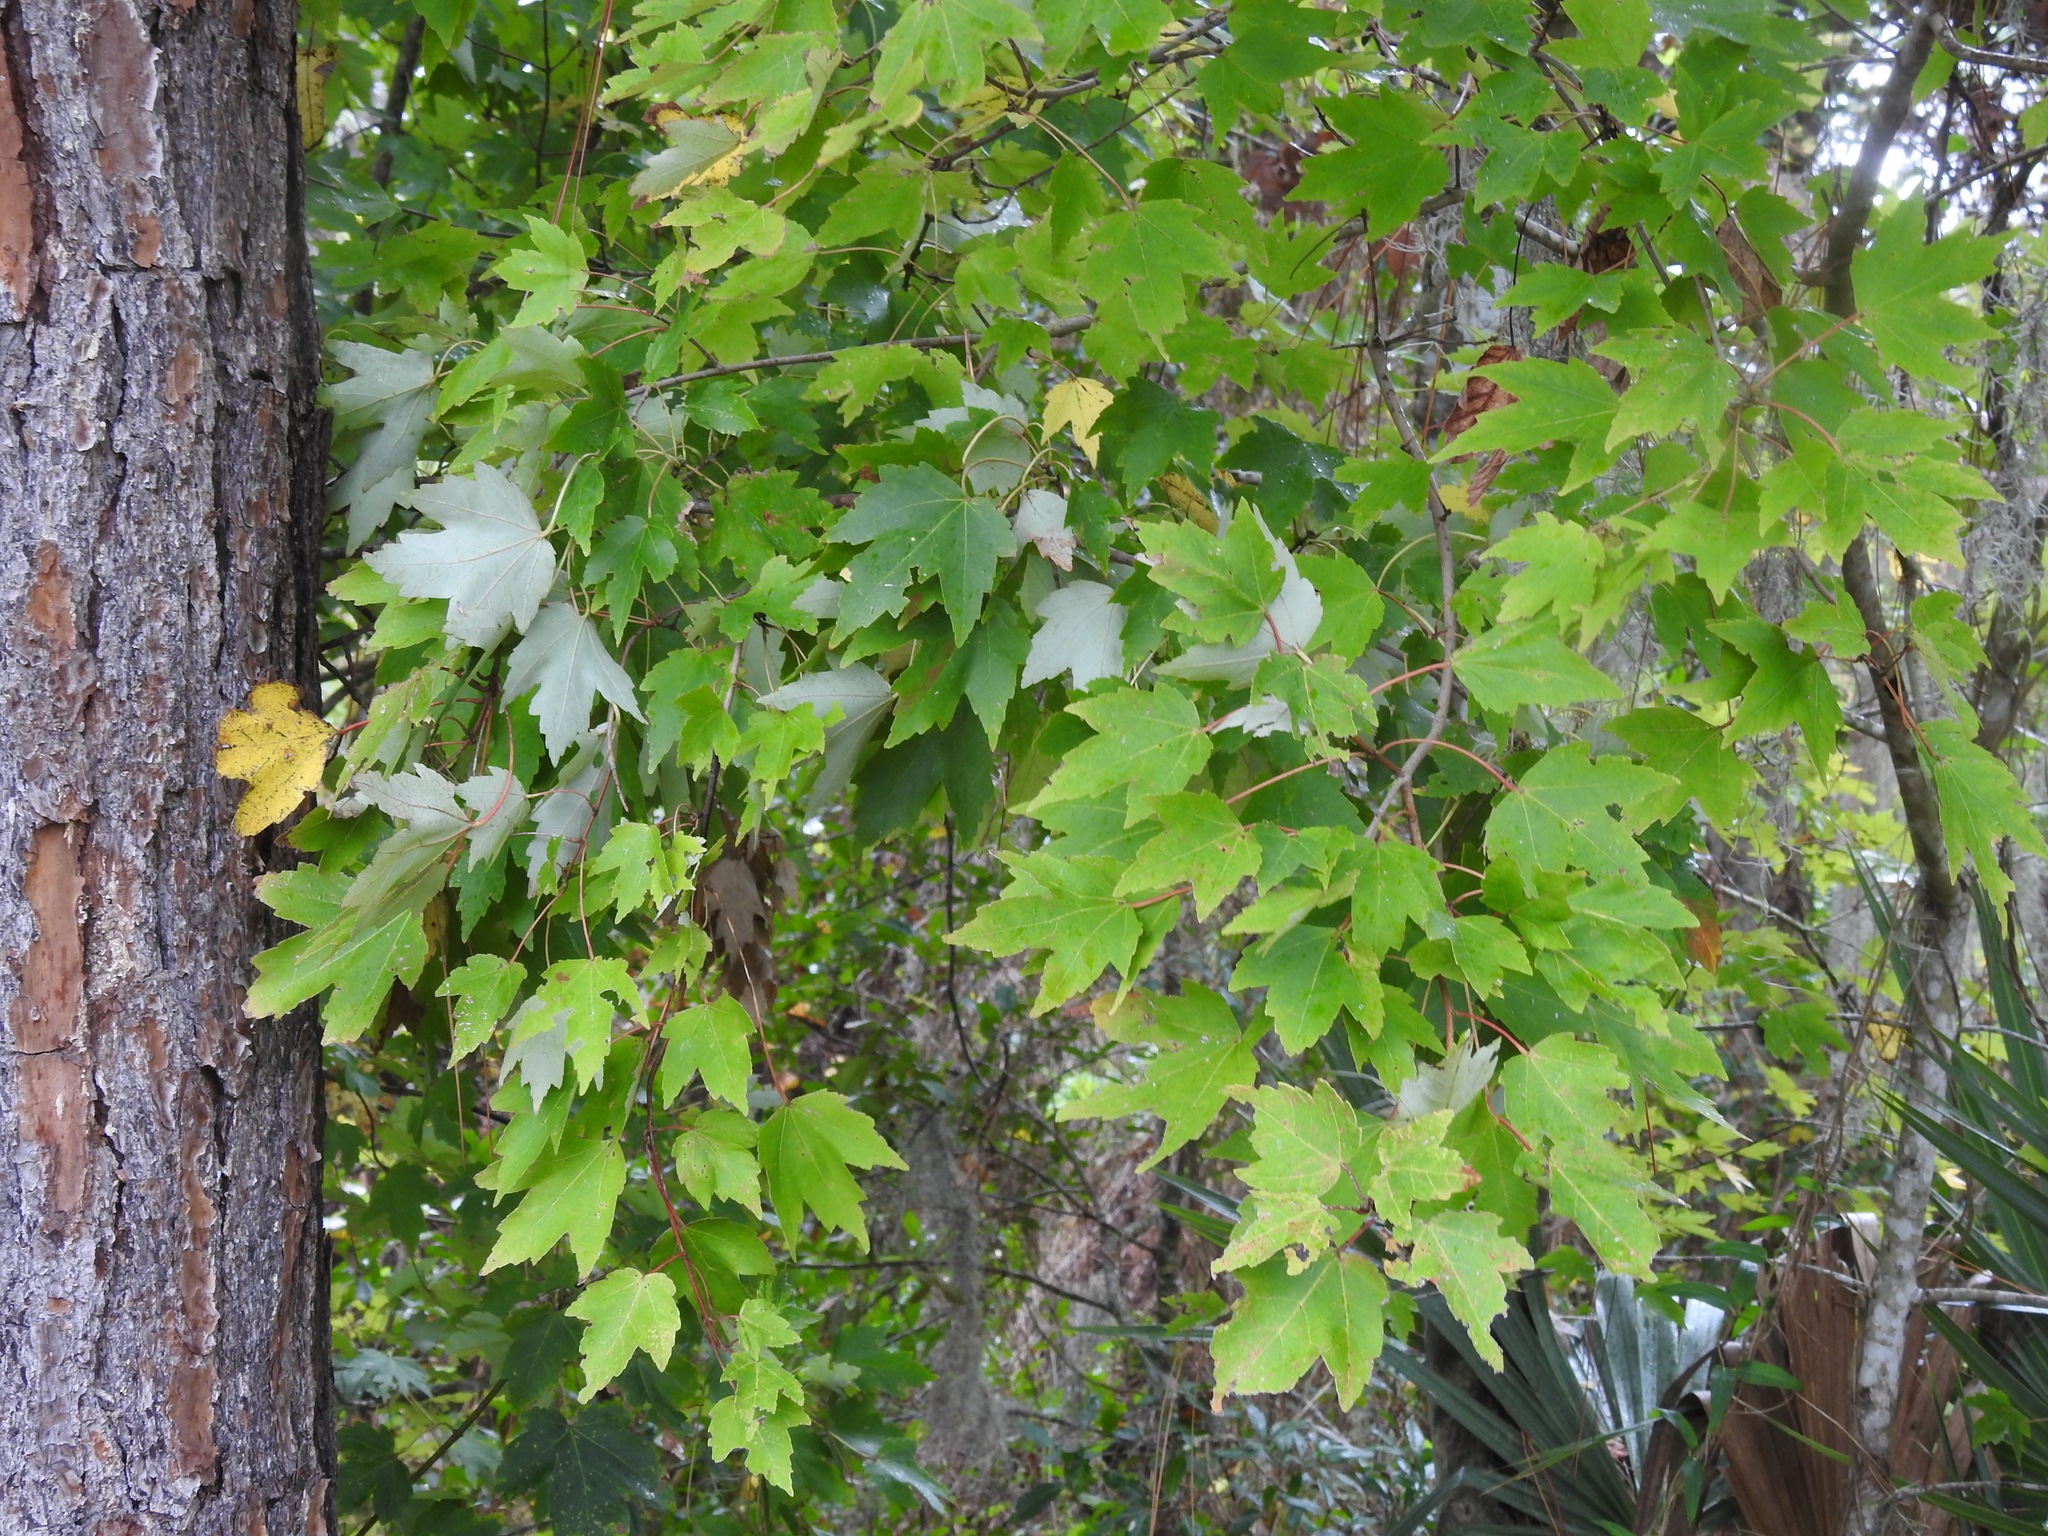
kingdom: Plantae
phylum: Tracheophyta
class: Magnoliopsida
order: Sapindales
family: Sapindaceae
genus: Acer
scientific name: Acer rubrum
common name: Red maple
